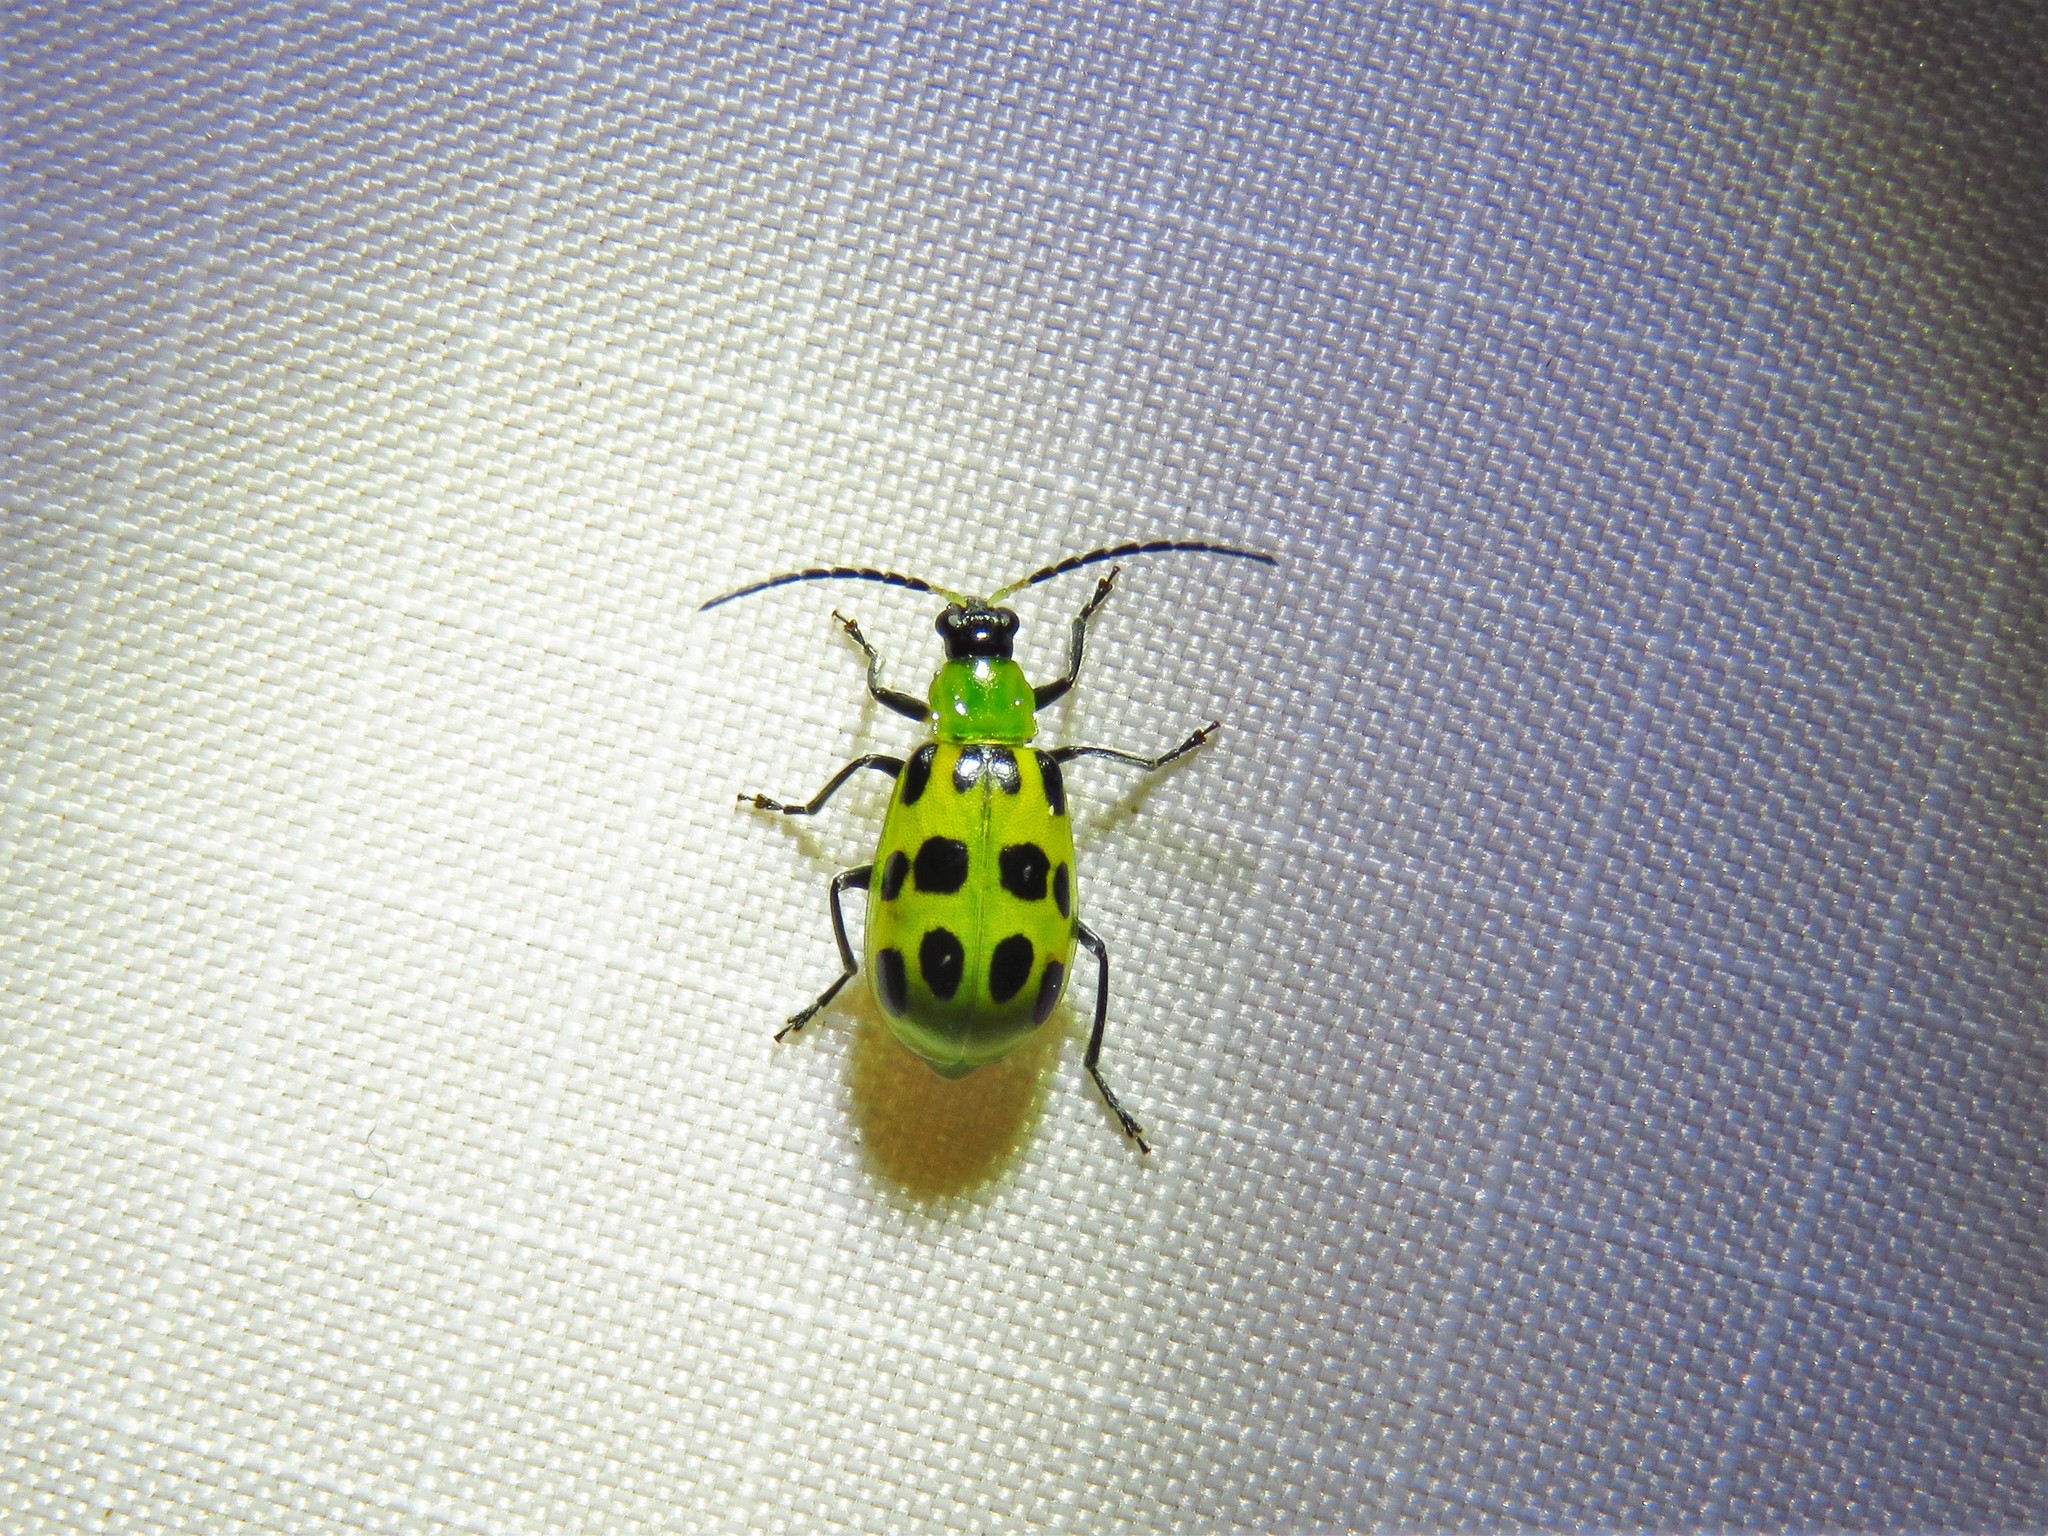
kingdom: Animalia
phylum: Arthropoda
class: Insecta
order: Coleoptera
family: Chrysomelidae
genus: Diabrotica
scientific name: Diabrotica undecimpunctata
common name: Spotted cucumber beetle
